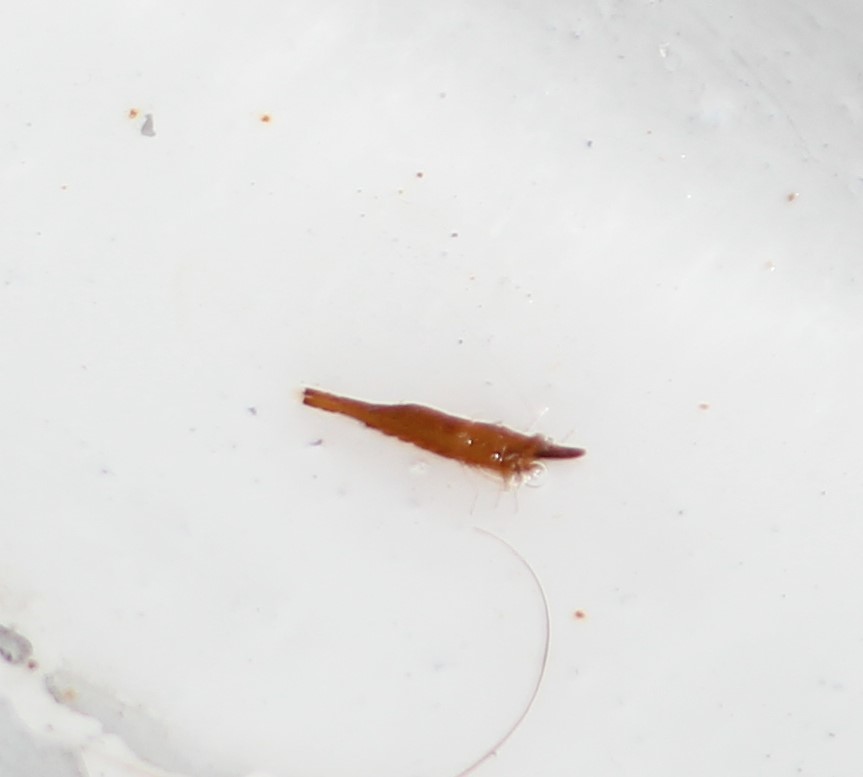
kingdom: Animalia
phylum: Arthropoda
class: Malacostraca
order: Decapoda
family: Hippolytidae
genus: Latreutes
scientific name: Latreutes fucorum
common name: Slender sargassum shrimp
